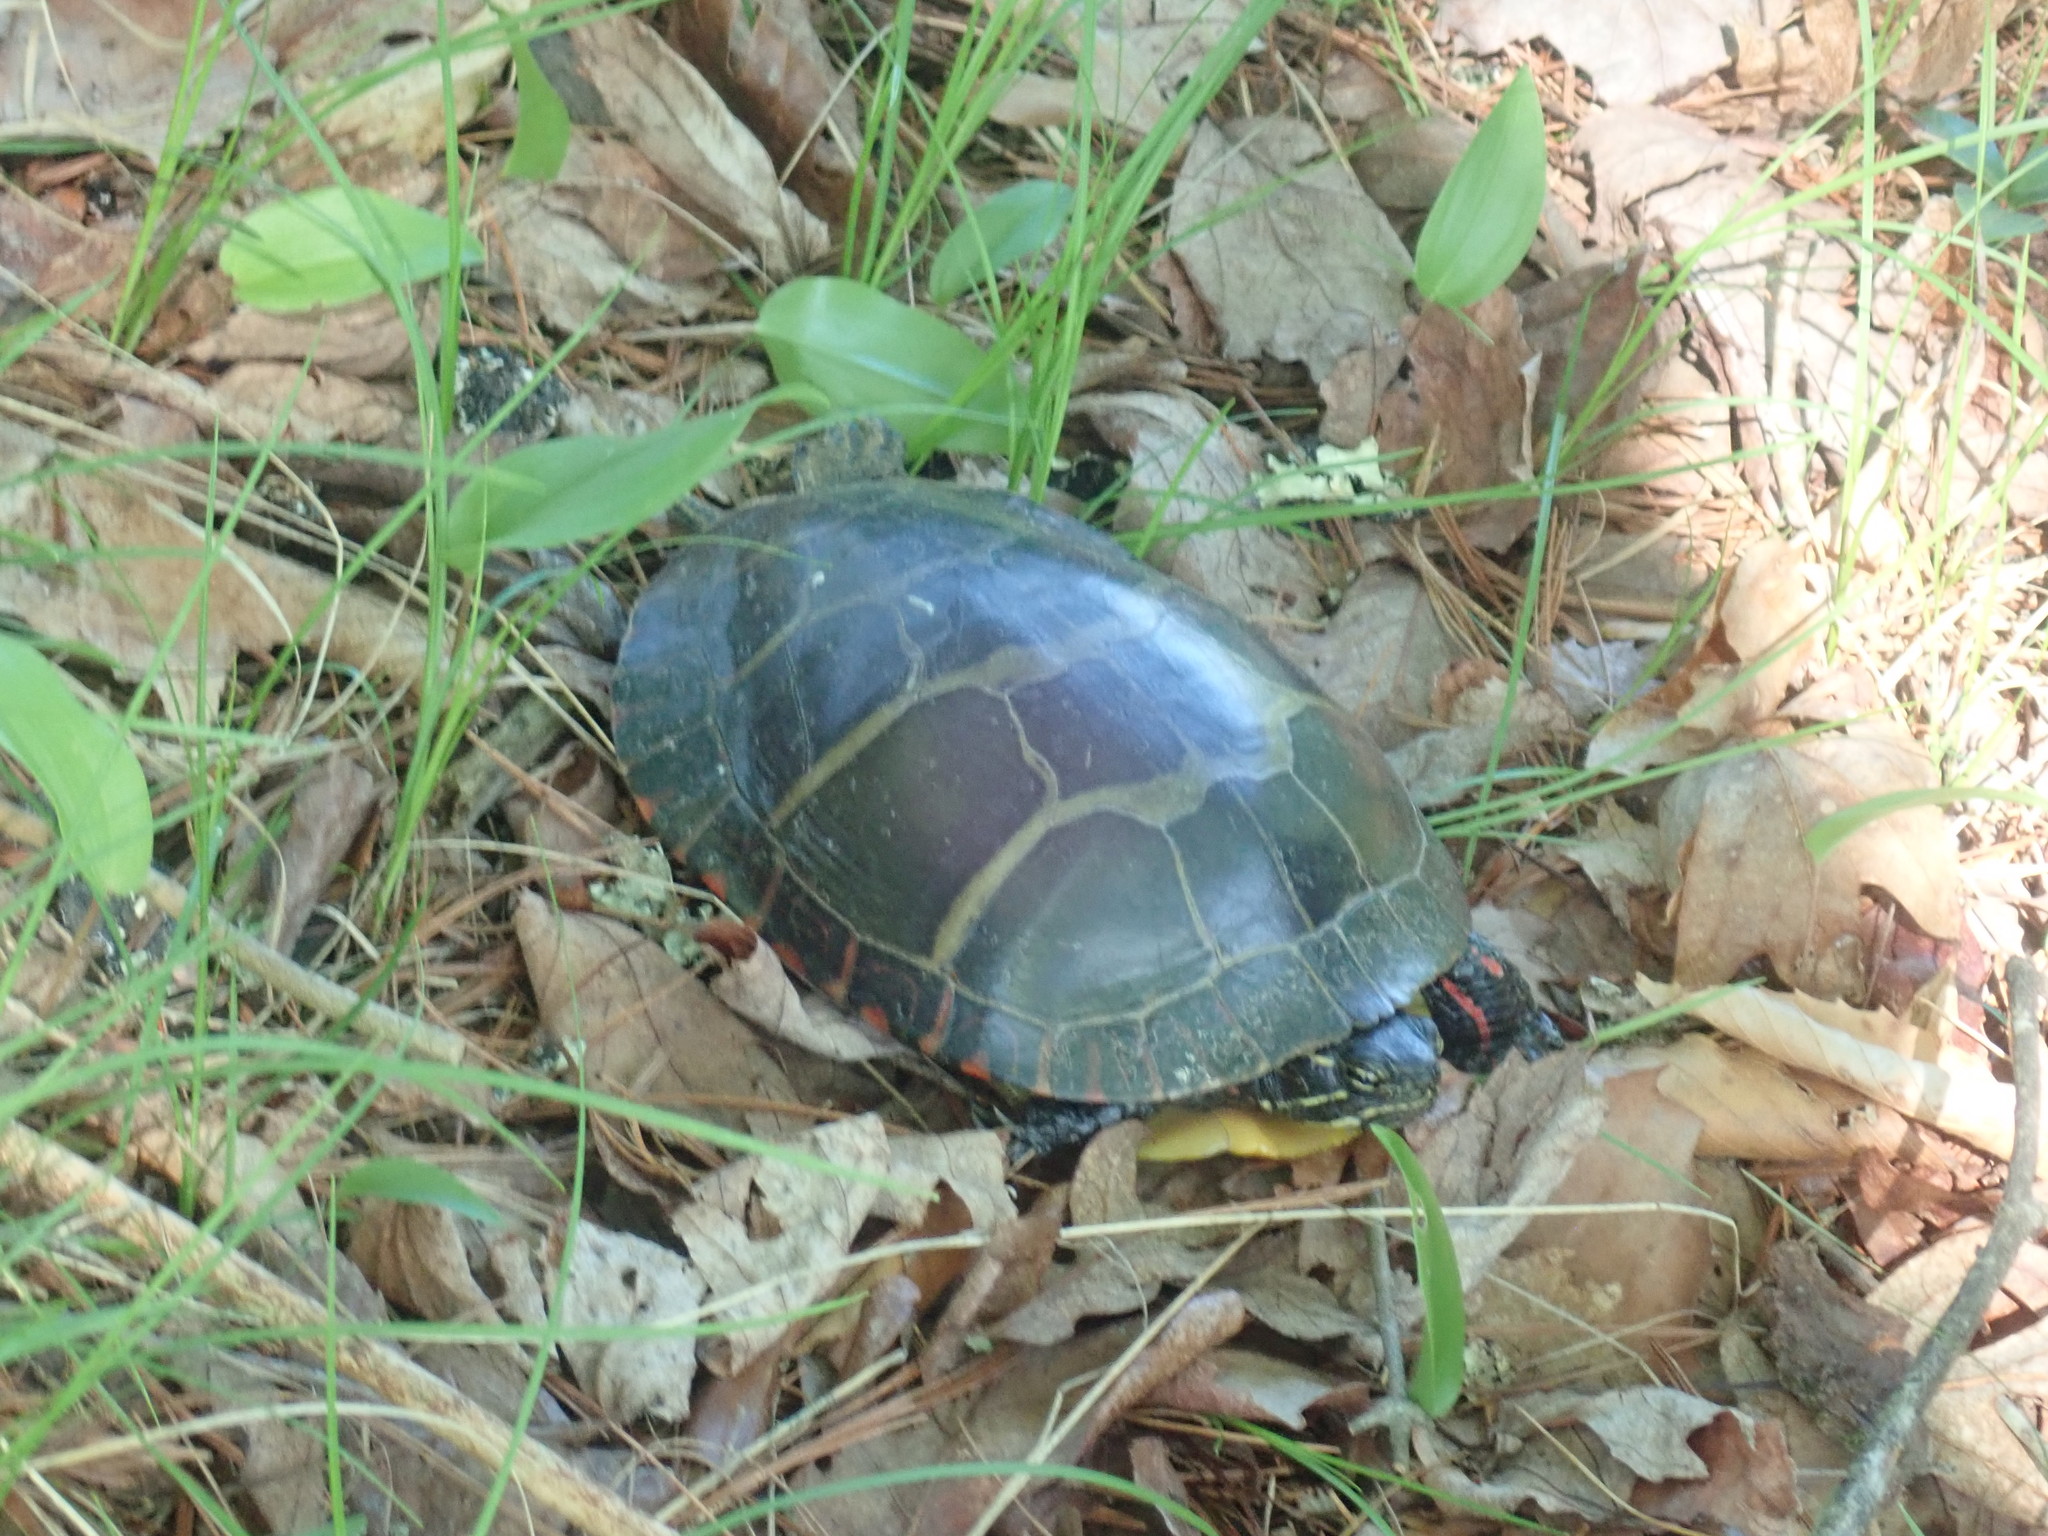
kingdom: Animalia
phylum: Chordata
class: Testudines
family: Emydidae
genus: Chrysemys
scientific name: Chrysemys picta
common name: Painted turtle
